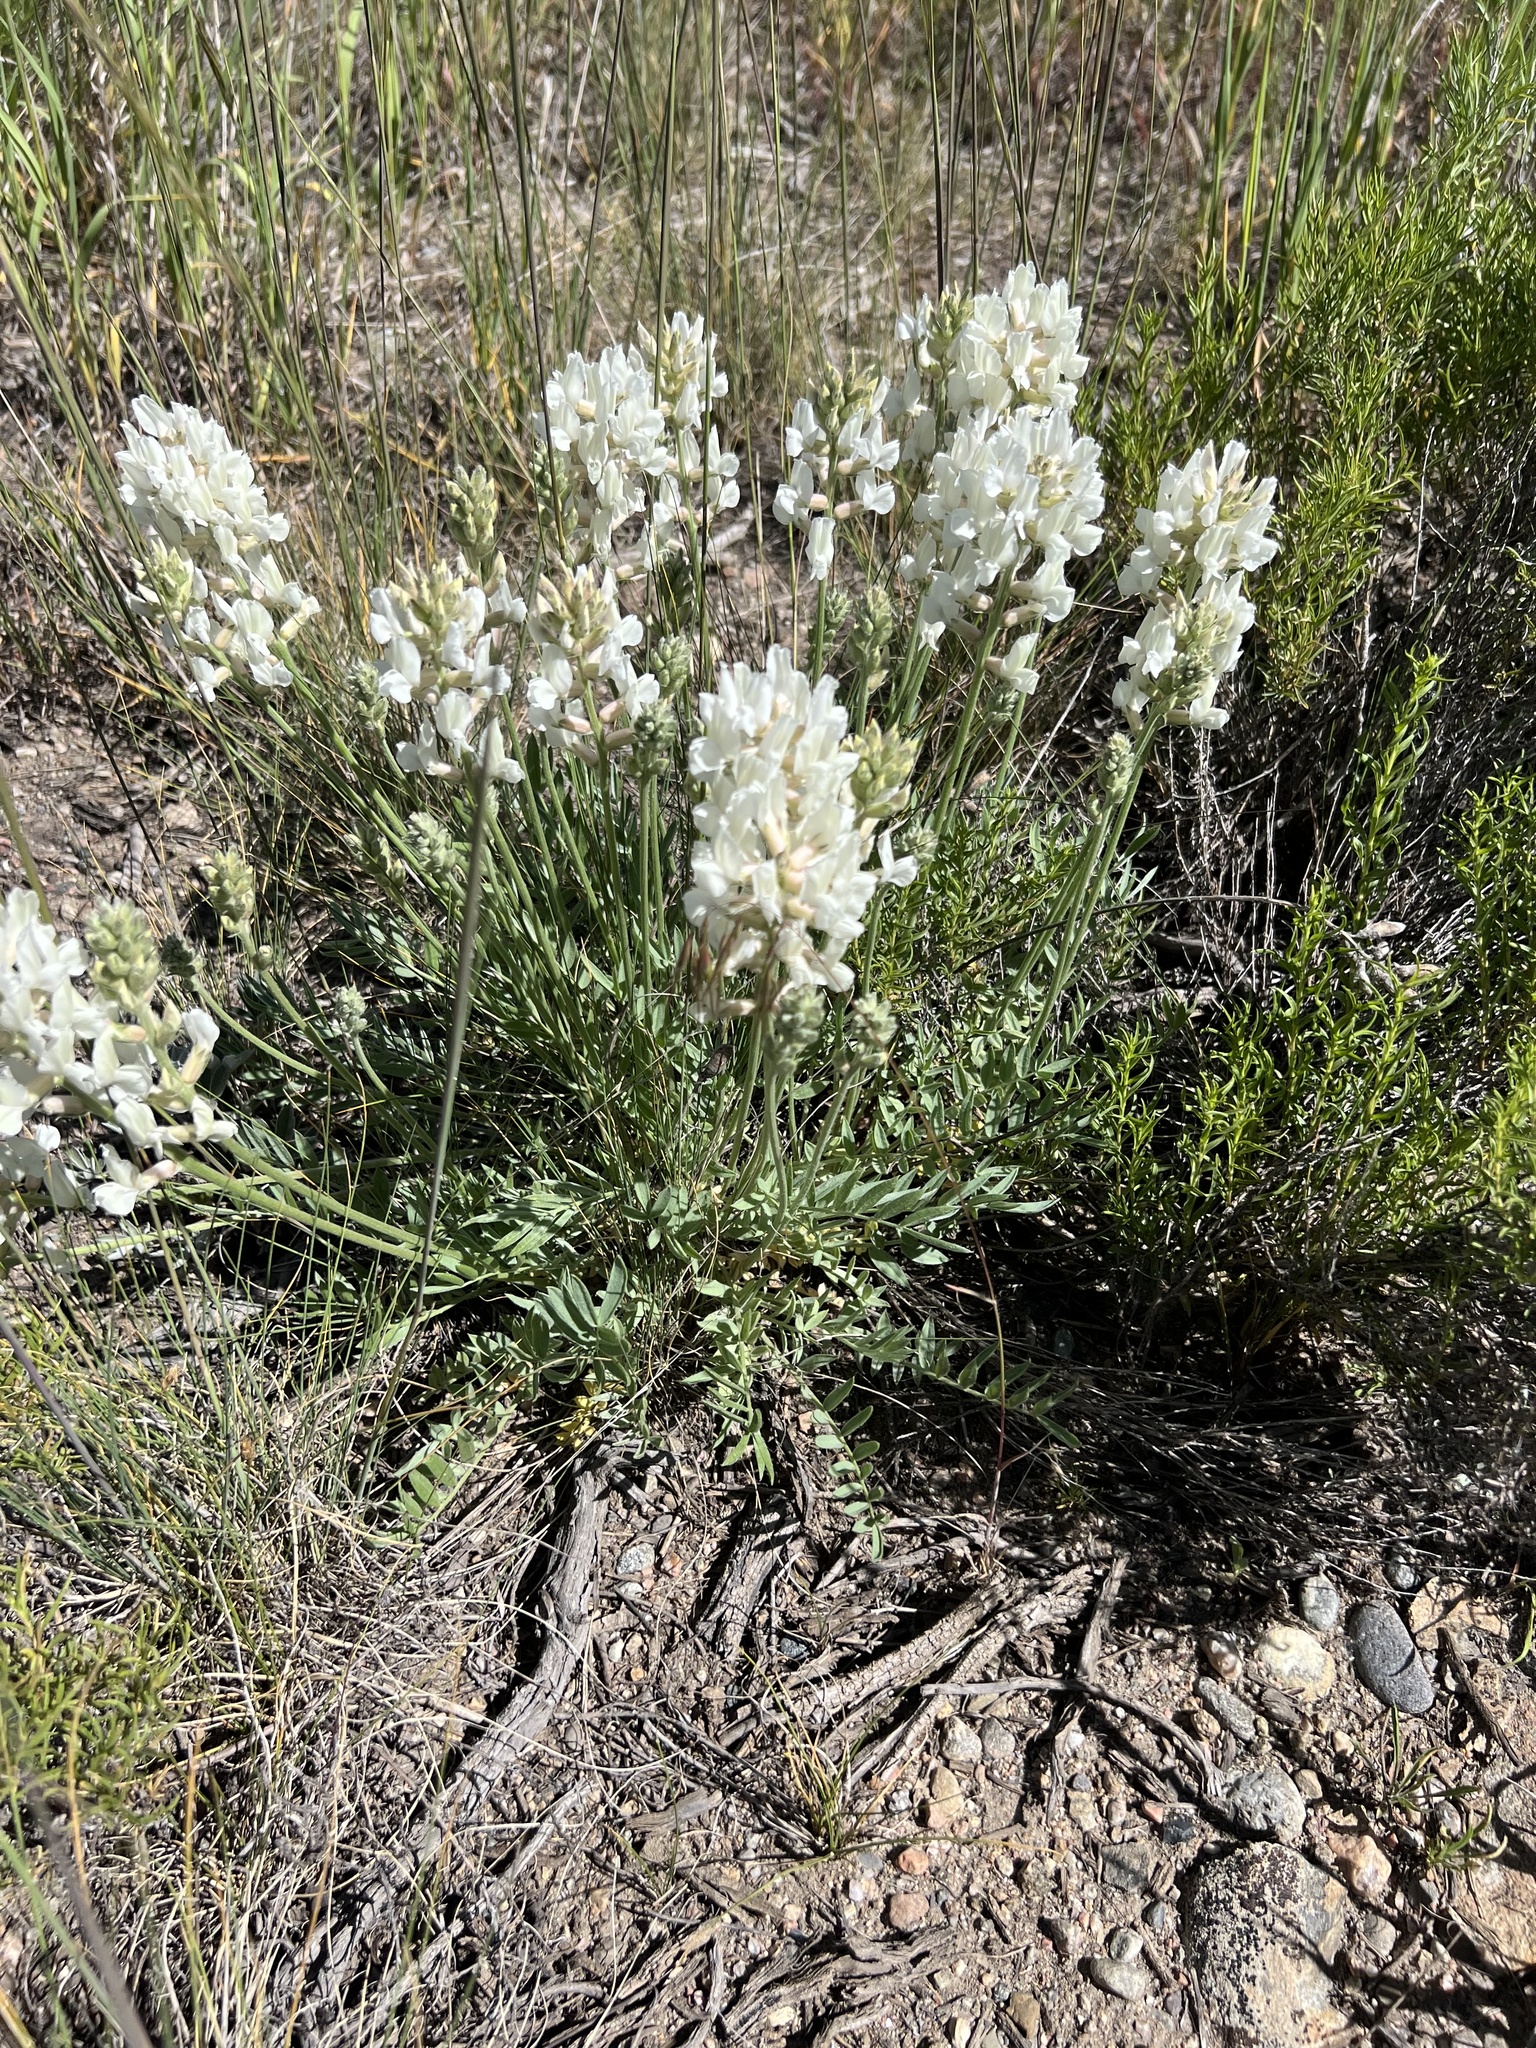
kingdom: Plantae
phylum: Tracheophyta
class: Magnoliopsida
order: Fabales
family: Fabaceae
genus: Oxytropis
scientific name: Oxytropis sericea
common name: Silky locoweed
